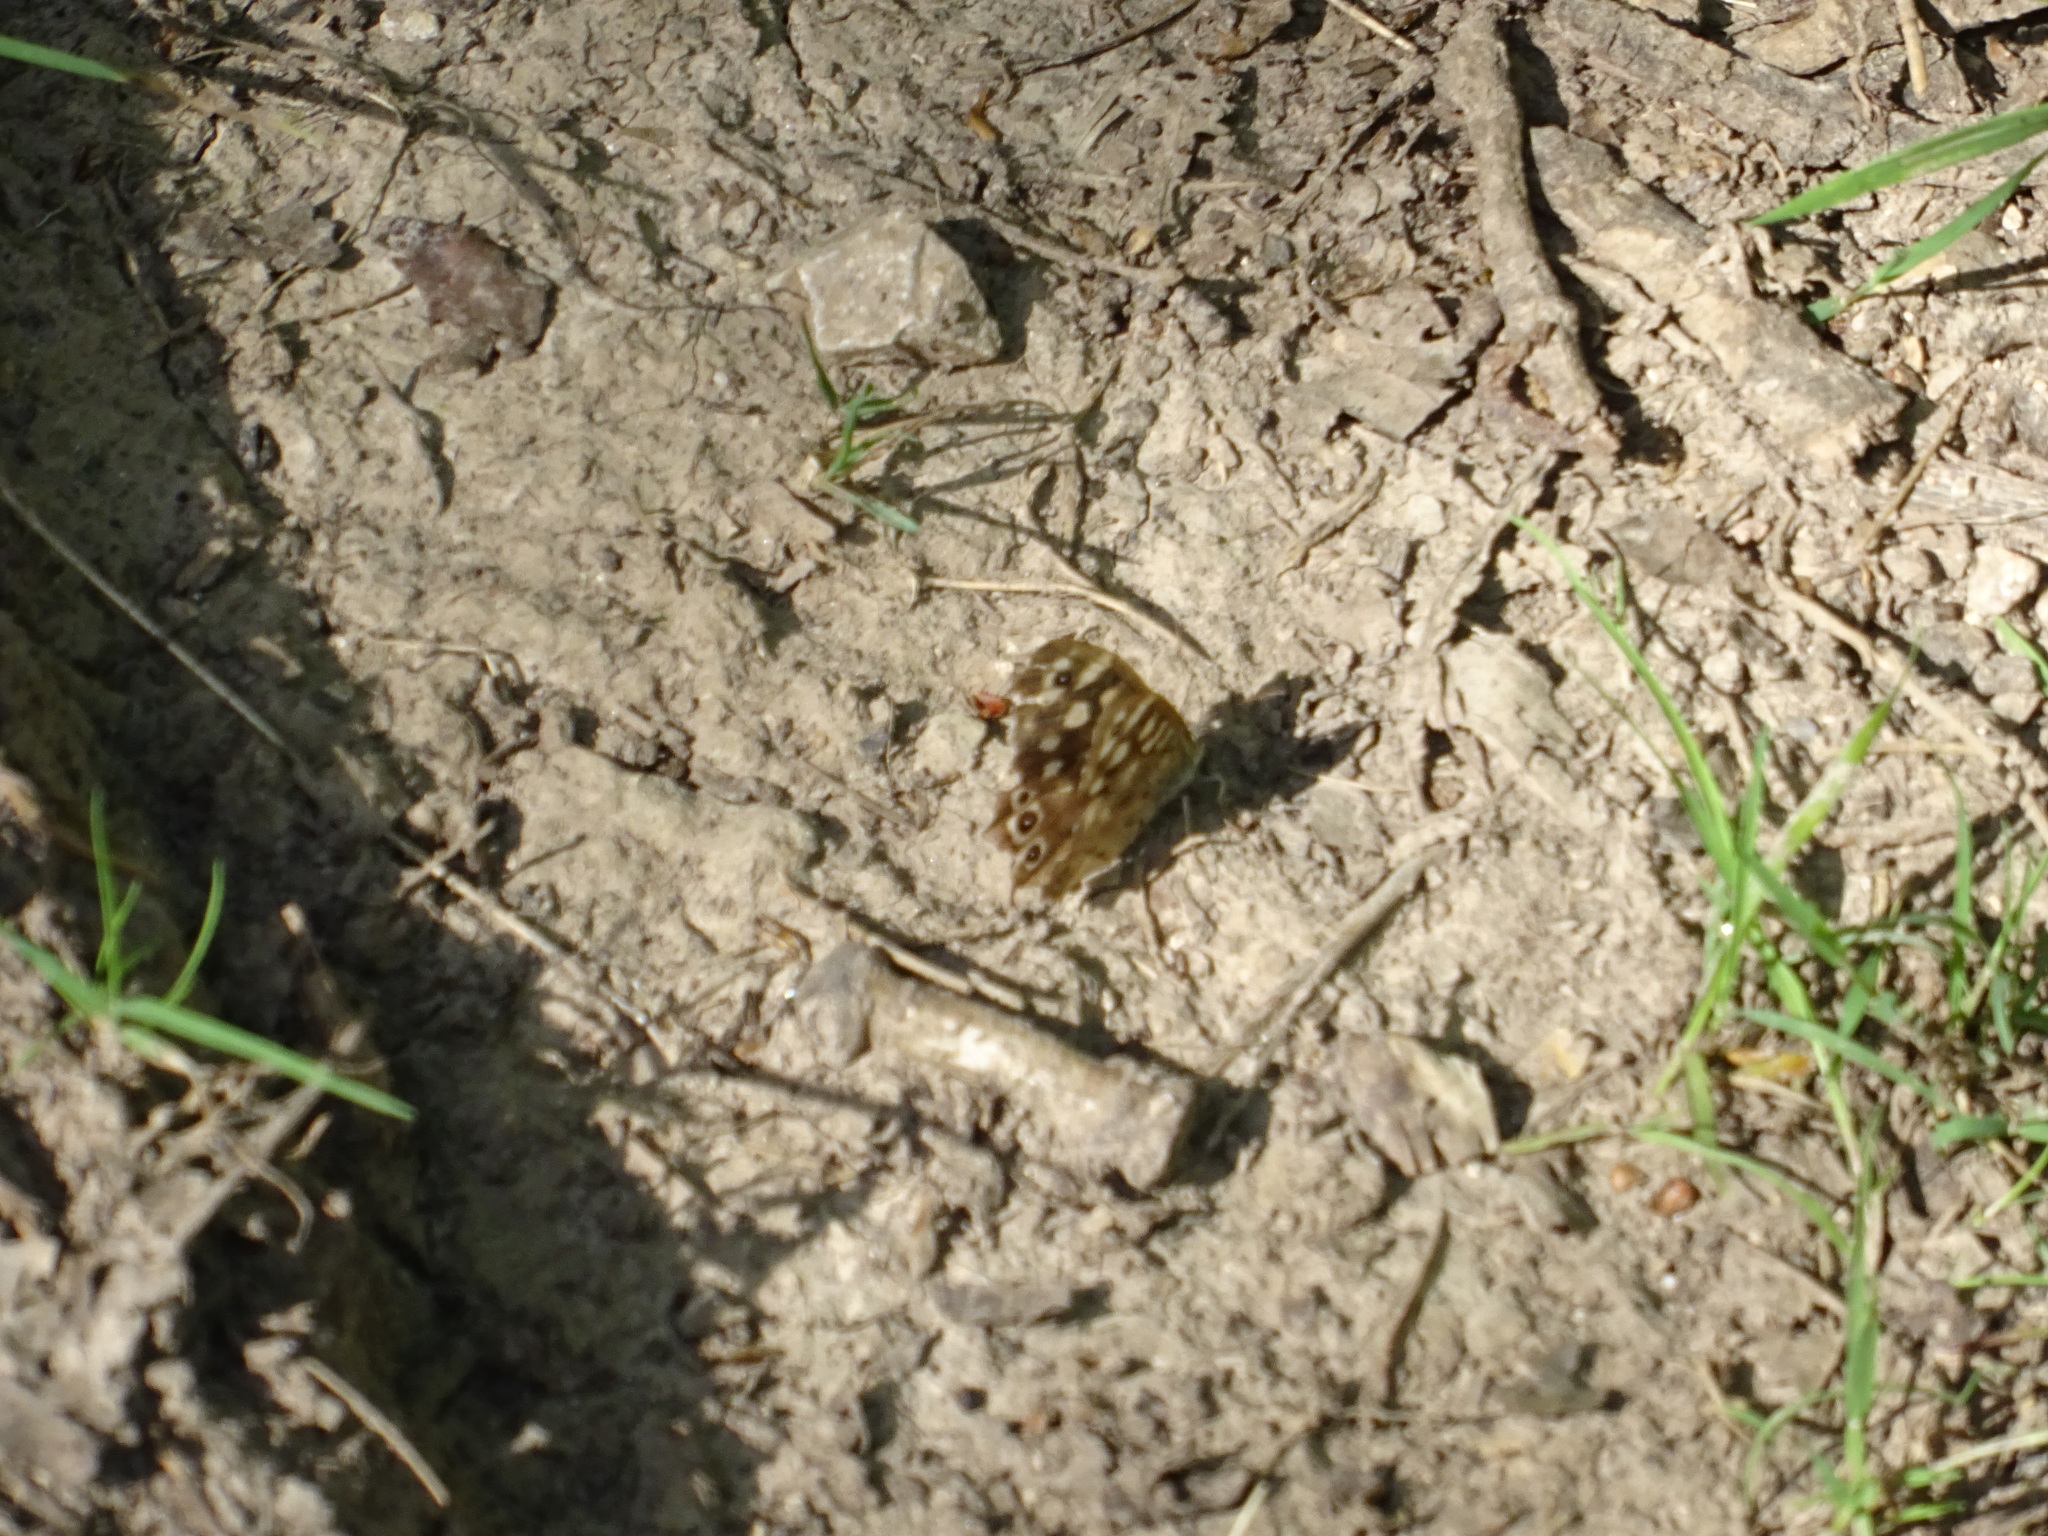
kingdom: Animalia
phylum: Arthropoda
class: Insecta
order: Lepidoptera
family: Nymphalidae
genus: Pararge
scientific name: Pararge aegeria
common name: Speckled wood
